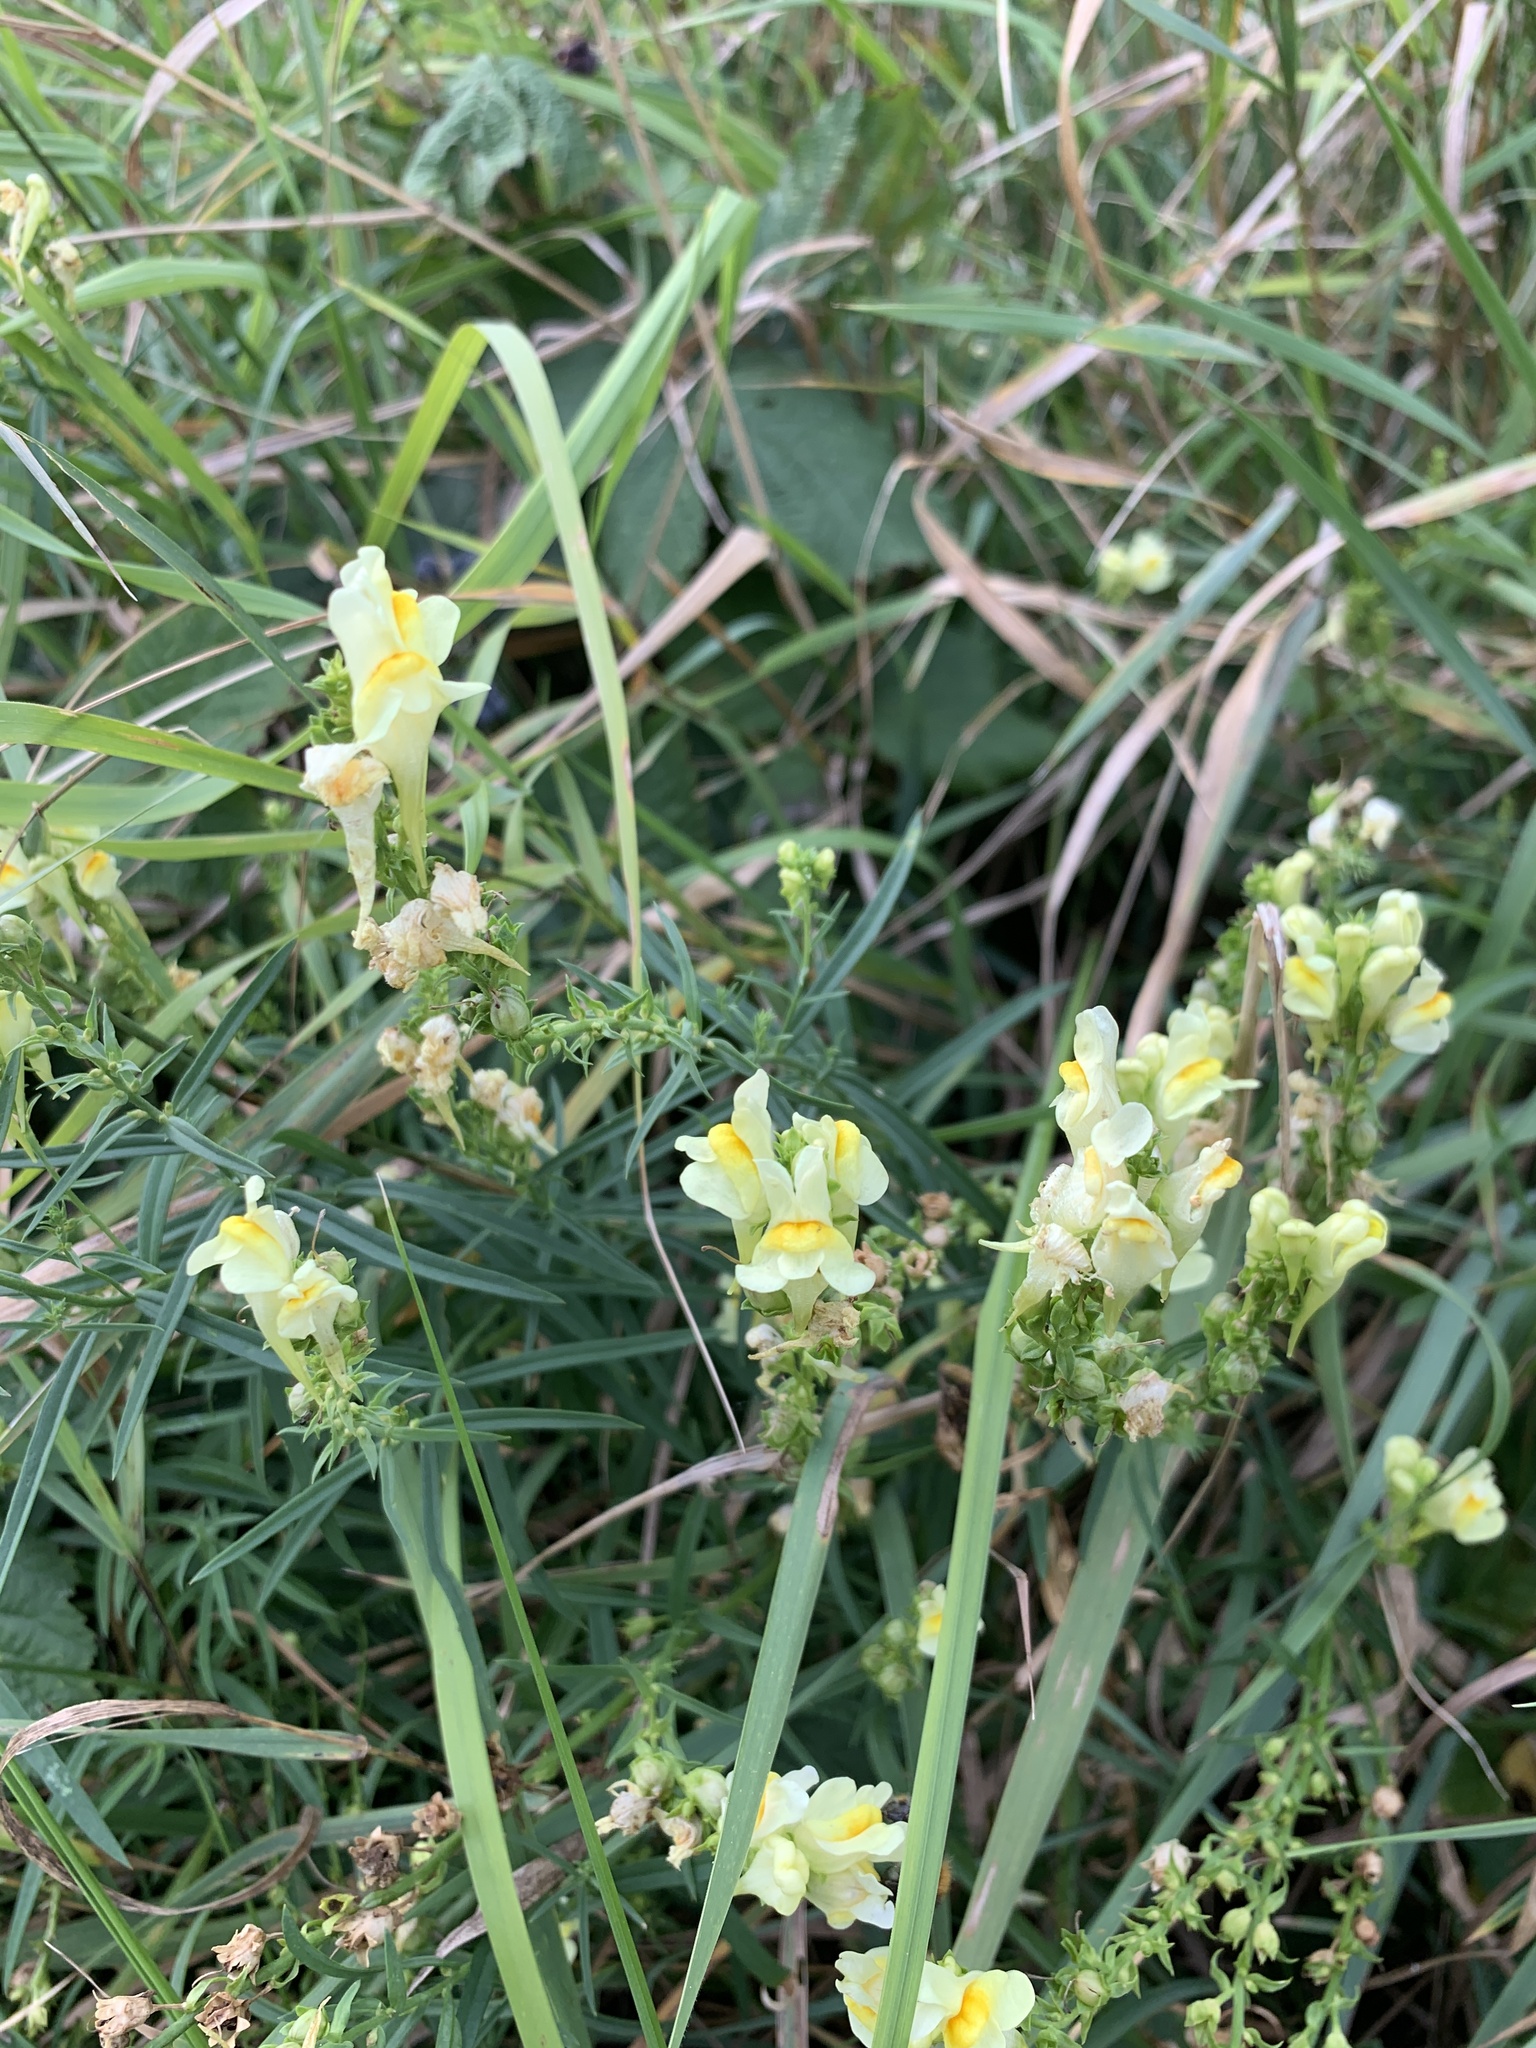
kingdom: Plantae
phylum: Tracheophyta
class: Magnoliopsida
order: Lamiales
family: Plantaginaceae
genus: Linaria
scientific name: Linaria vulgaris
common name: Butter and eggs
